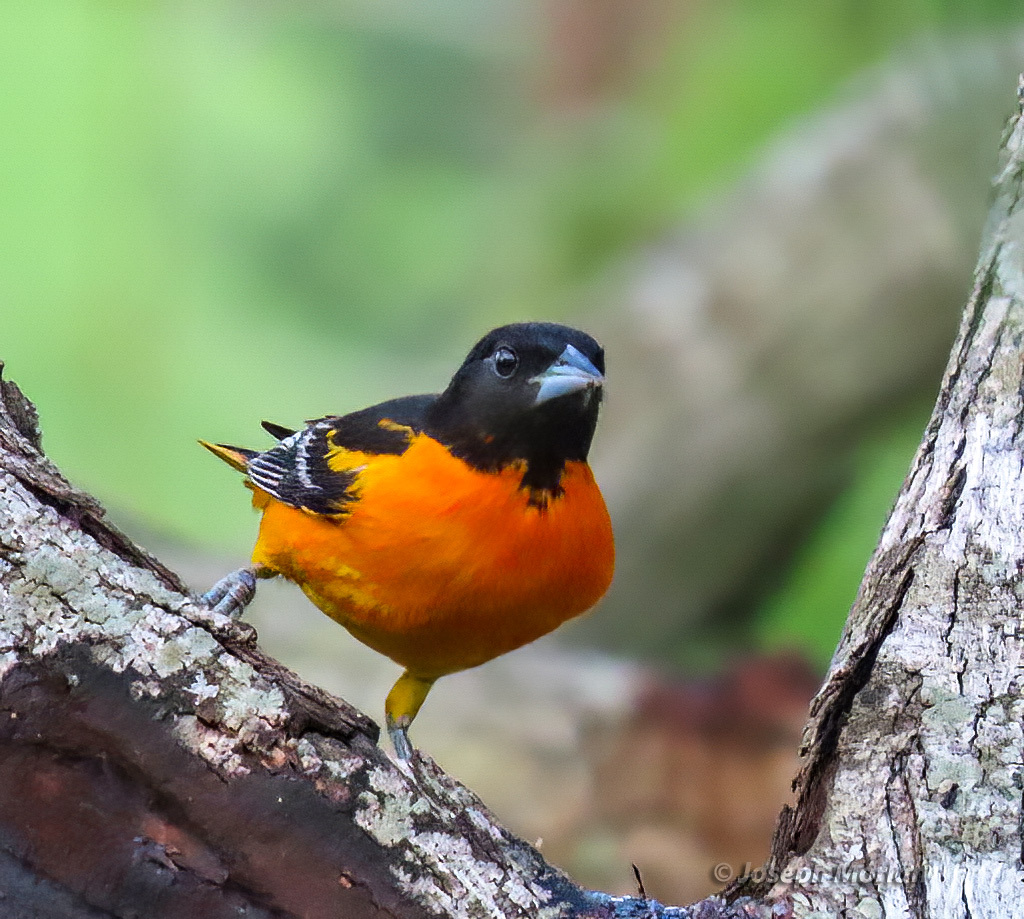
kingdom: Animalia
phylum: Chordata
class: Aves
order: Passeriformes
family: Icteridae
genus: Icterus
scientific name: Icterus galbula
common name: Baltimore oriole
